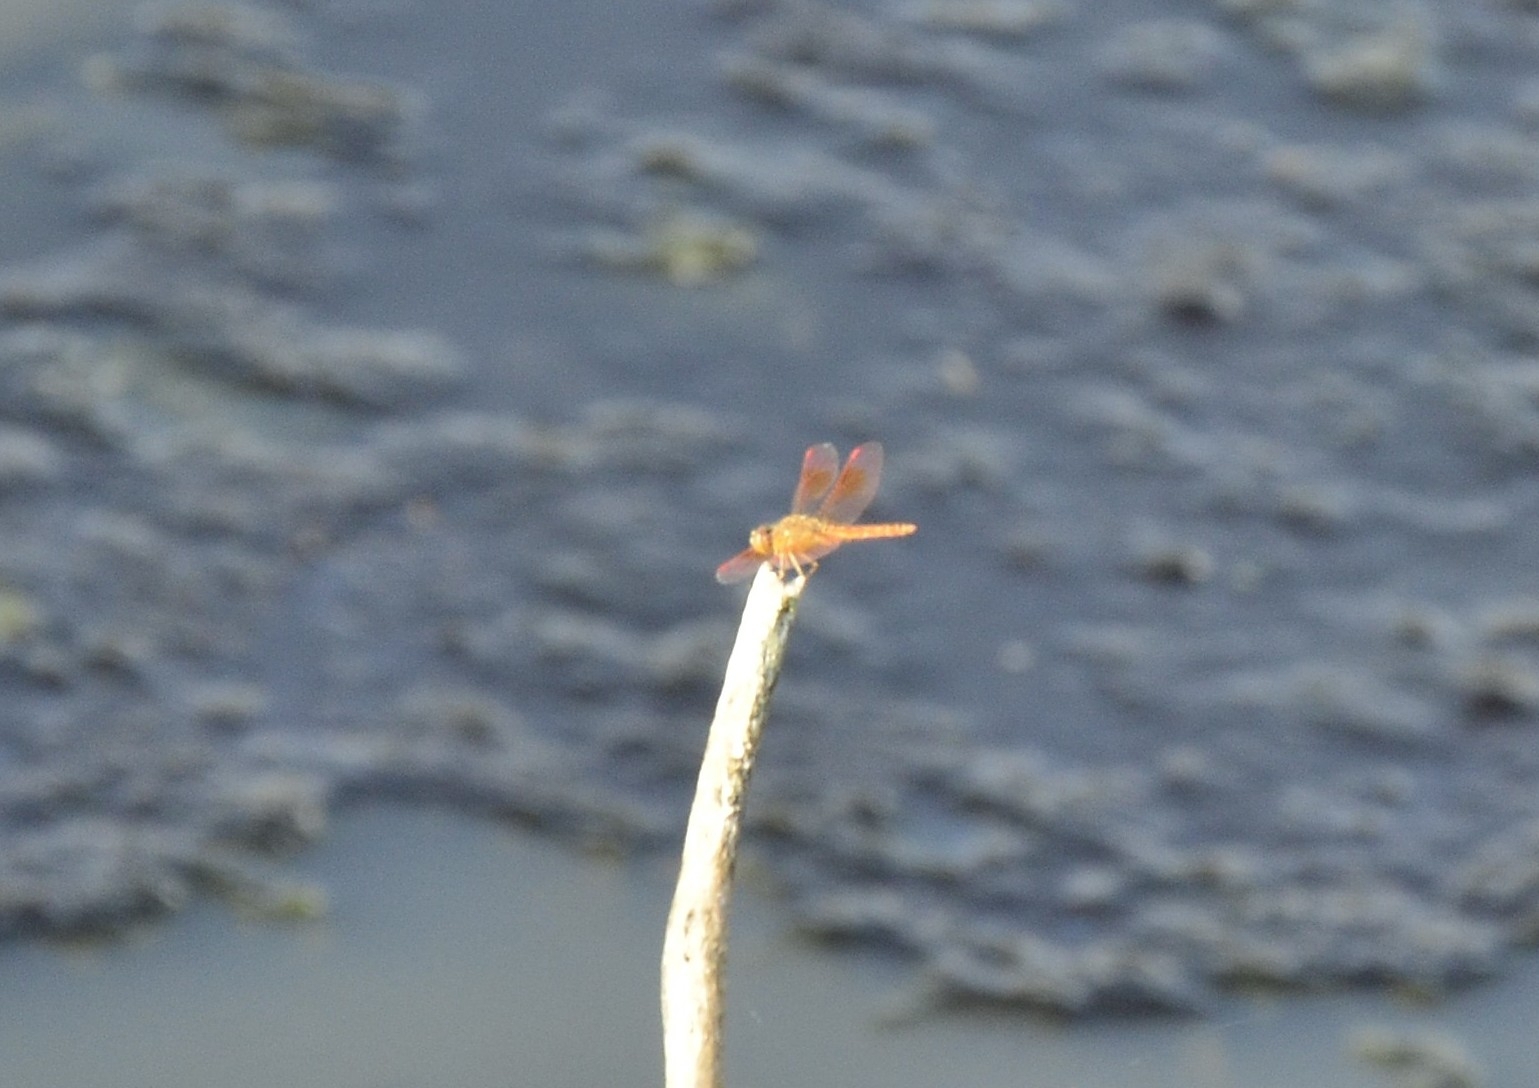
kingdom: Animalia
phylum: Arthropoda
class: Insecta
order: Odonata
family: Libellulidae
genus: Brachythemis
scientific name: Brachythemis contaminata
